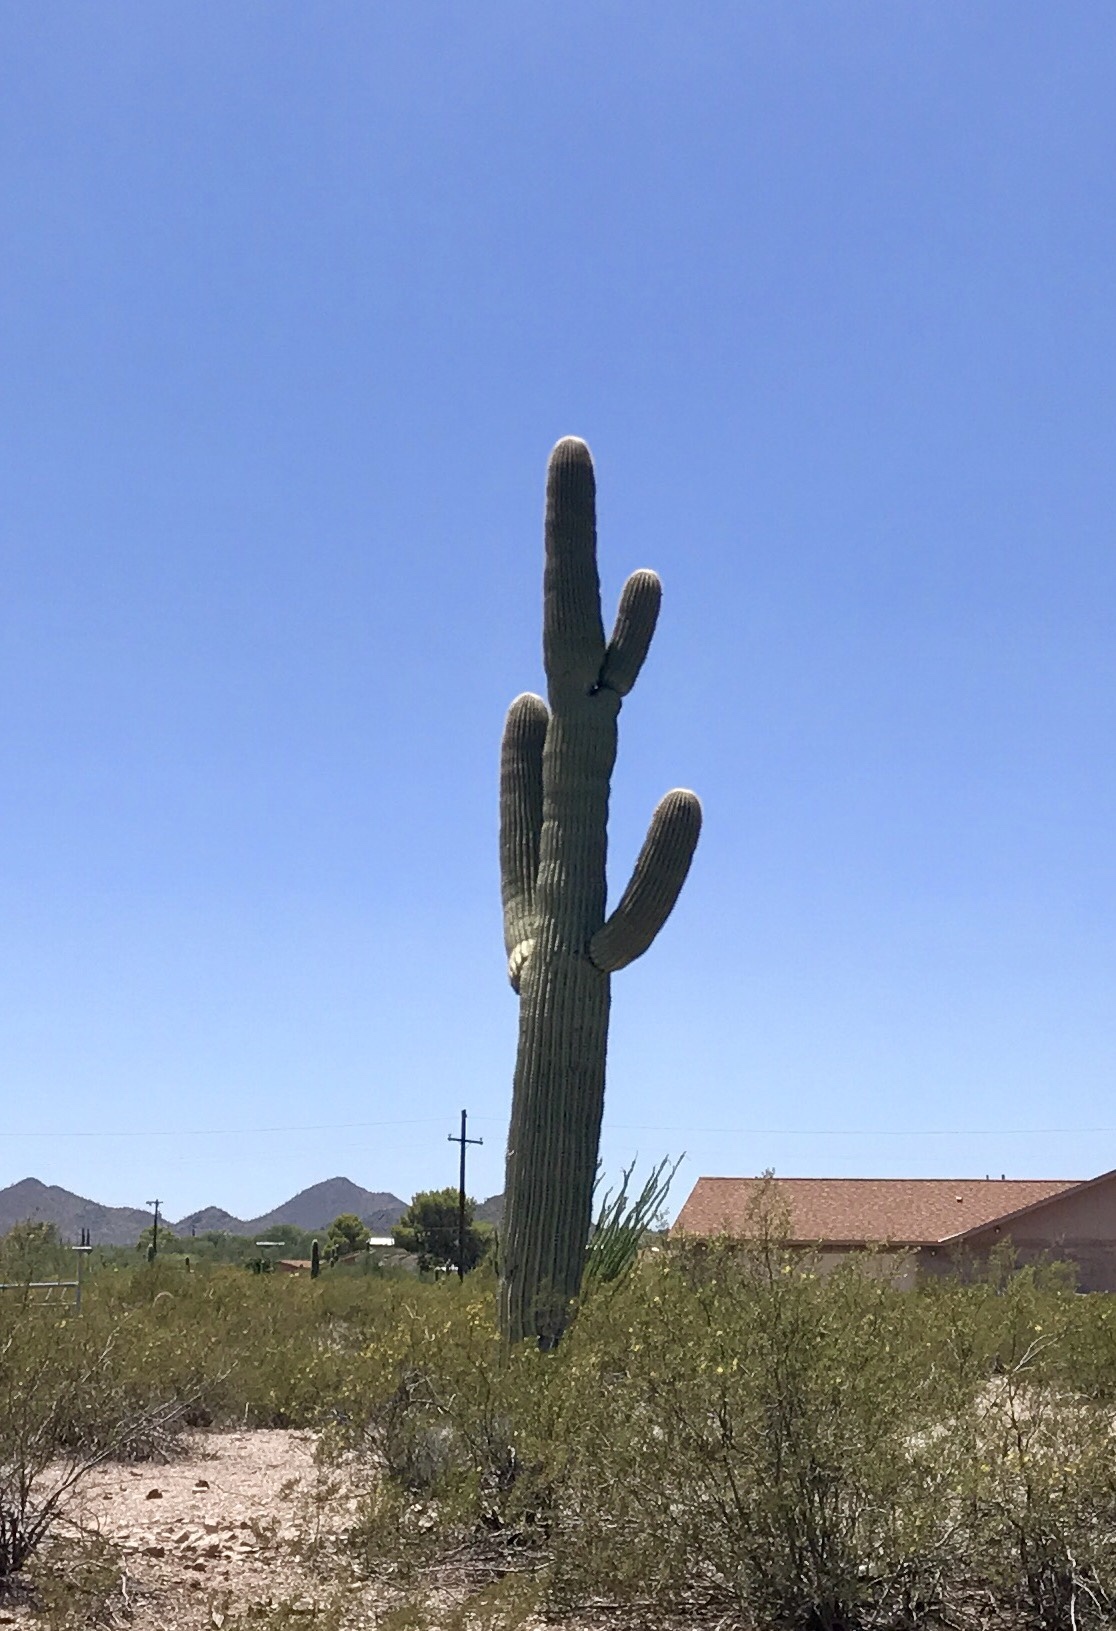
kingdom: Plantae
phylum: Tracheophyta
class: Magnoliopsida
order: Caryophyllales
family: Cactaceae
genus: Carnegiea
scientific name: Carnegiea gigantea
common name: Saguaro
